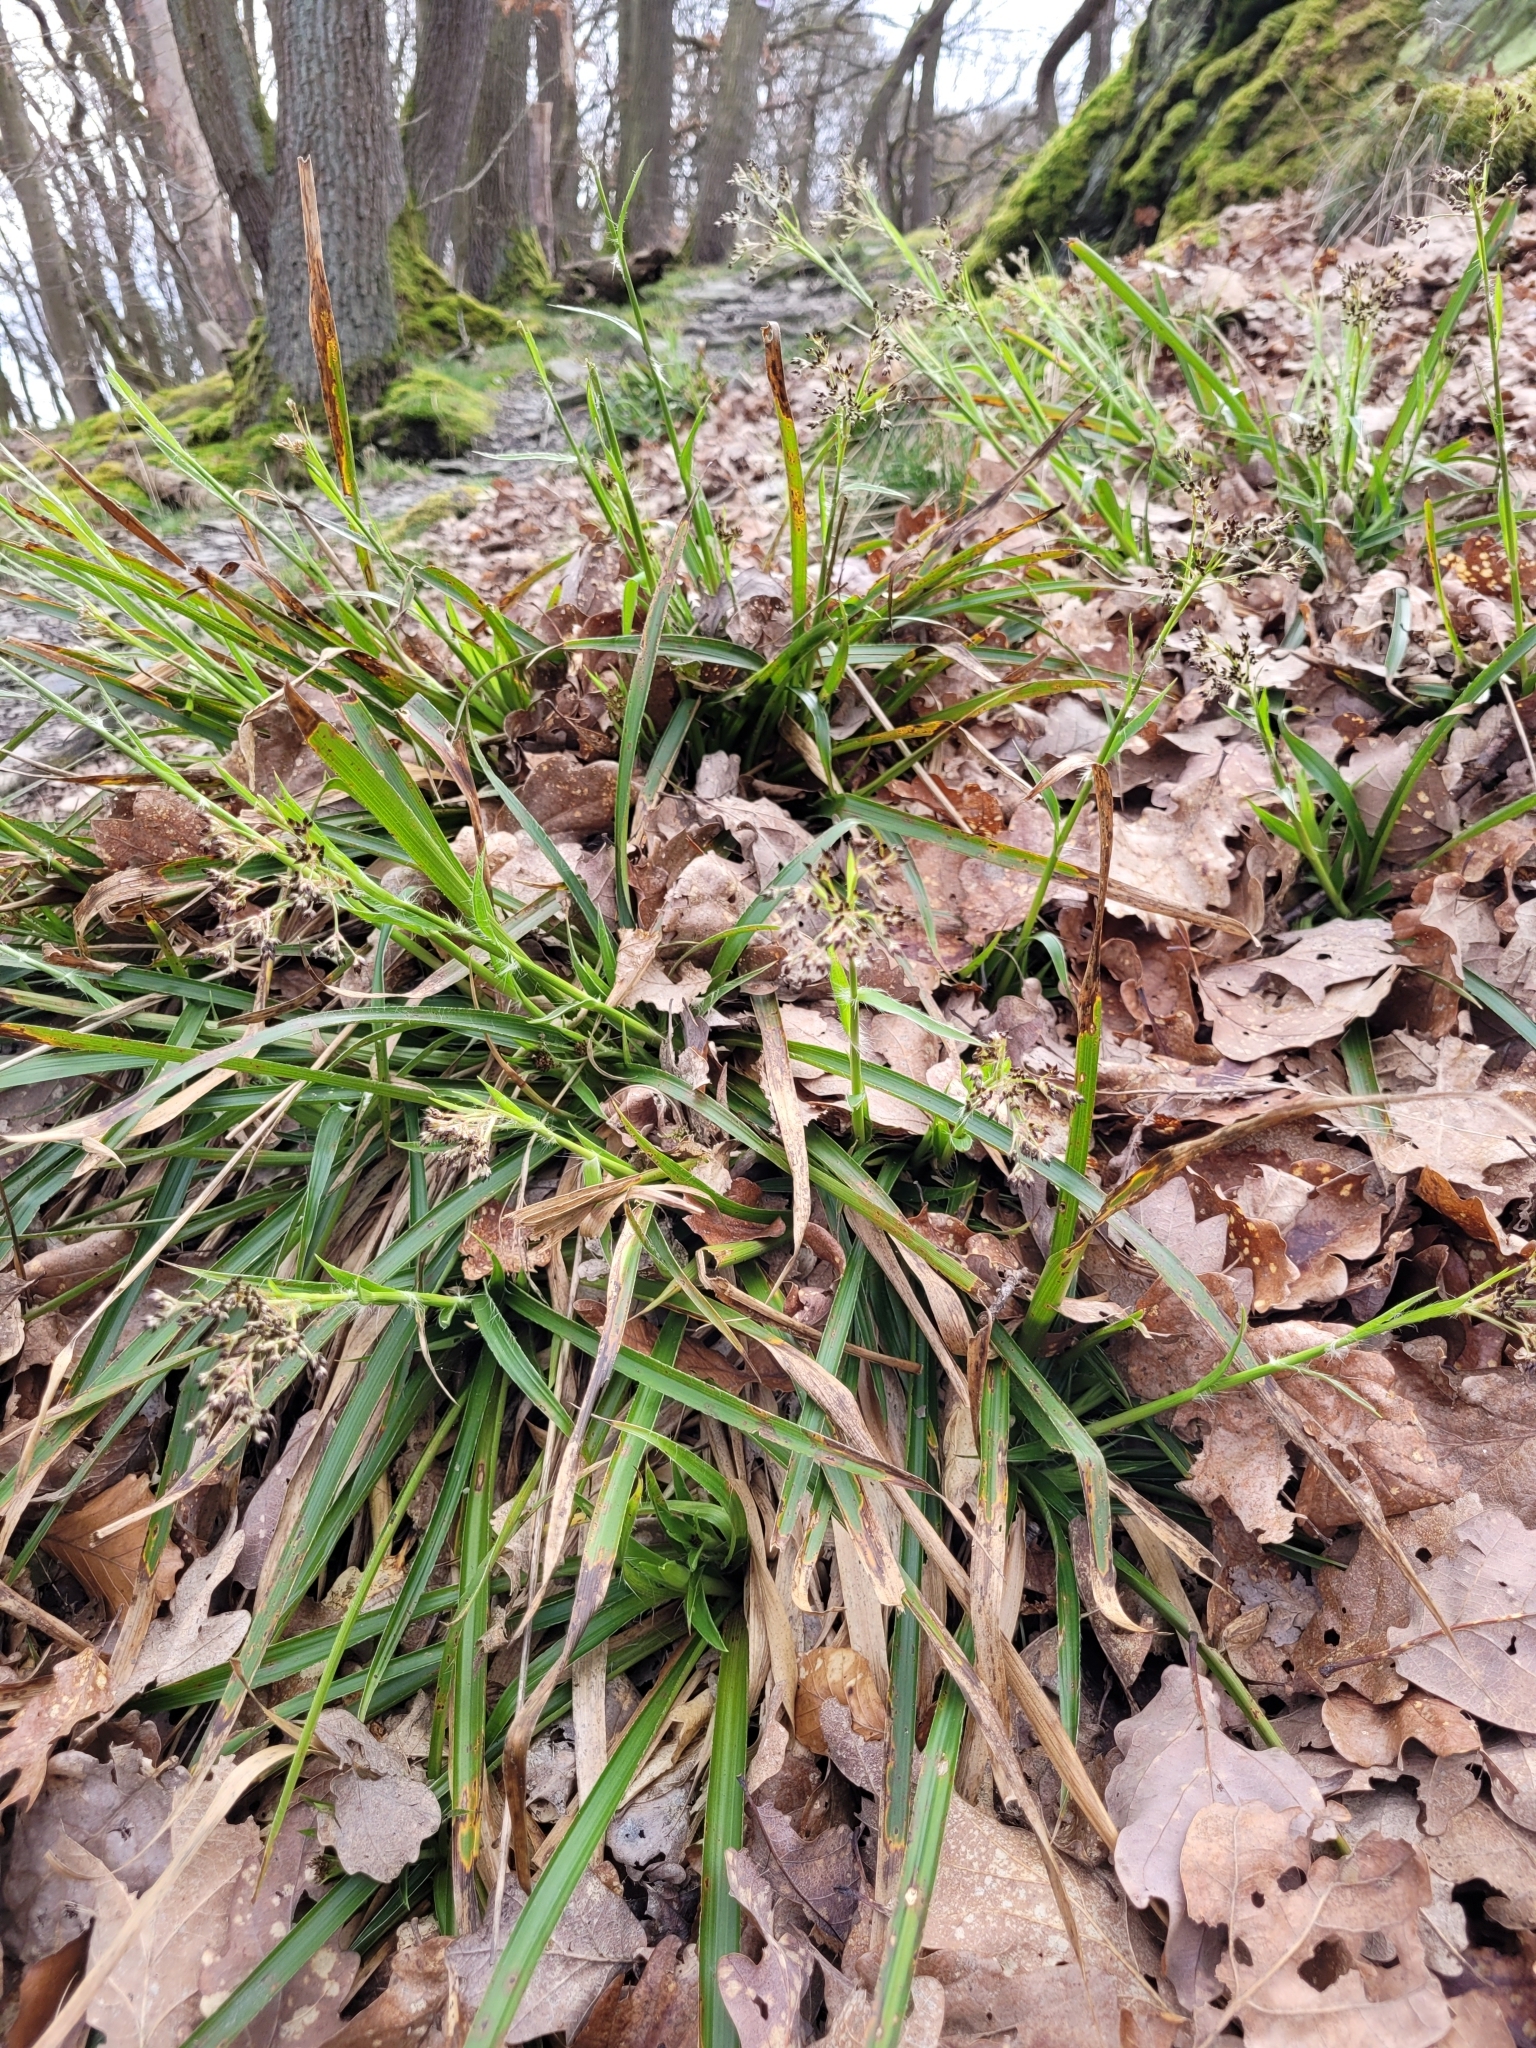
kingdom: Plantae
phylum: Tracheophyta
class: Liliopsida
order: Poales
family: Juncaceae
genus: Luzula
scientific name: Luzula sylvatica
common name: Great wood-rush
